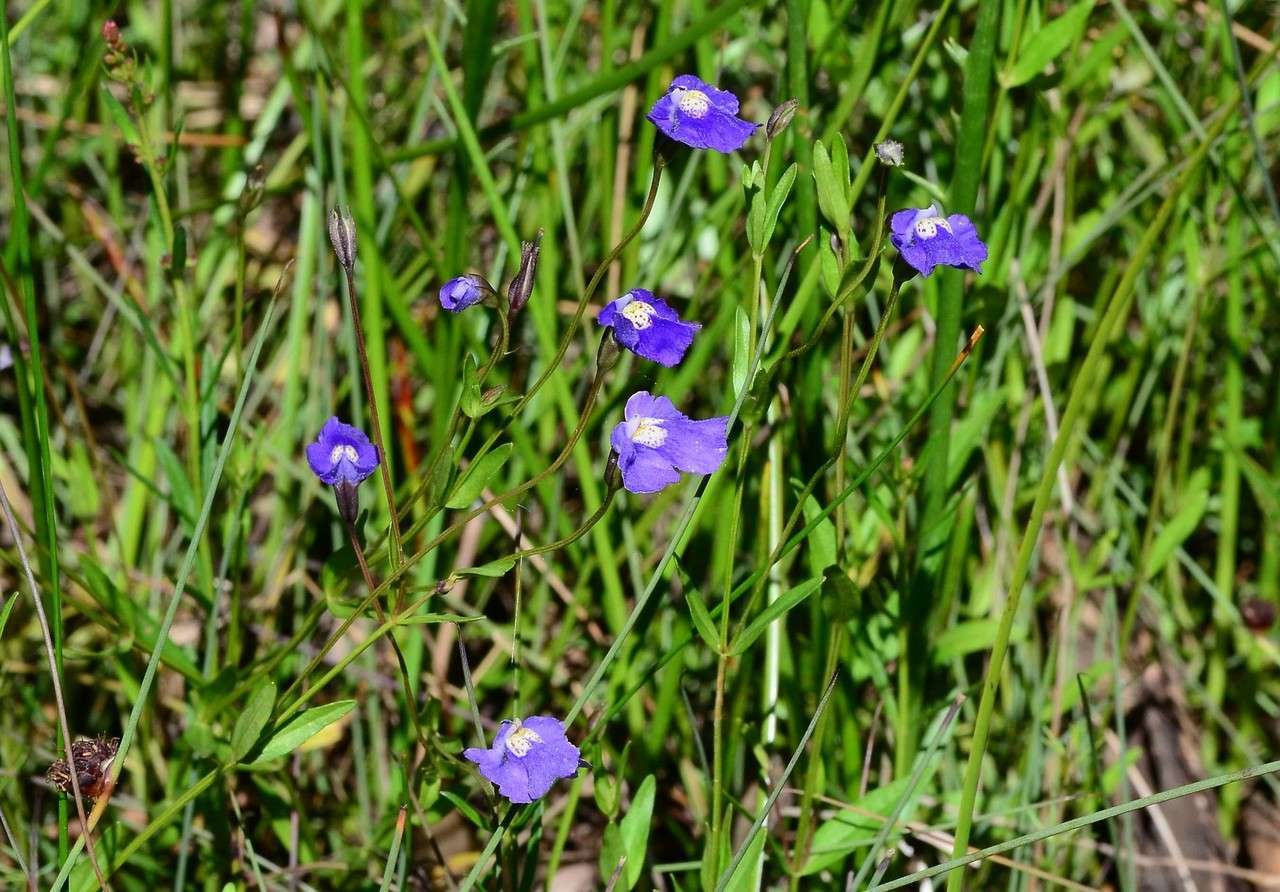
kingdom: Plantae
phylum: Tracheophyta
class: Magnoliopsida
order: Lamiales
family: Phrymaceae
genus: Mimulus
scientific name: Mimulus gracilis
